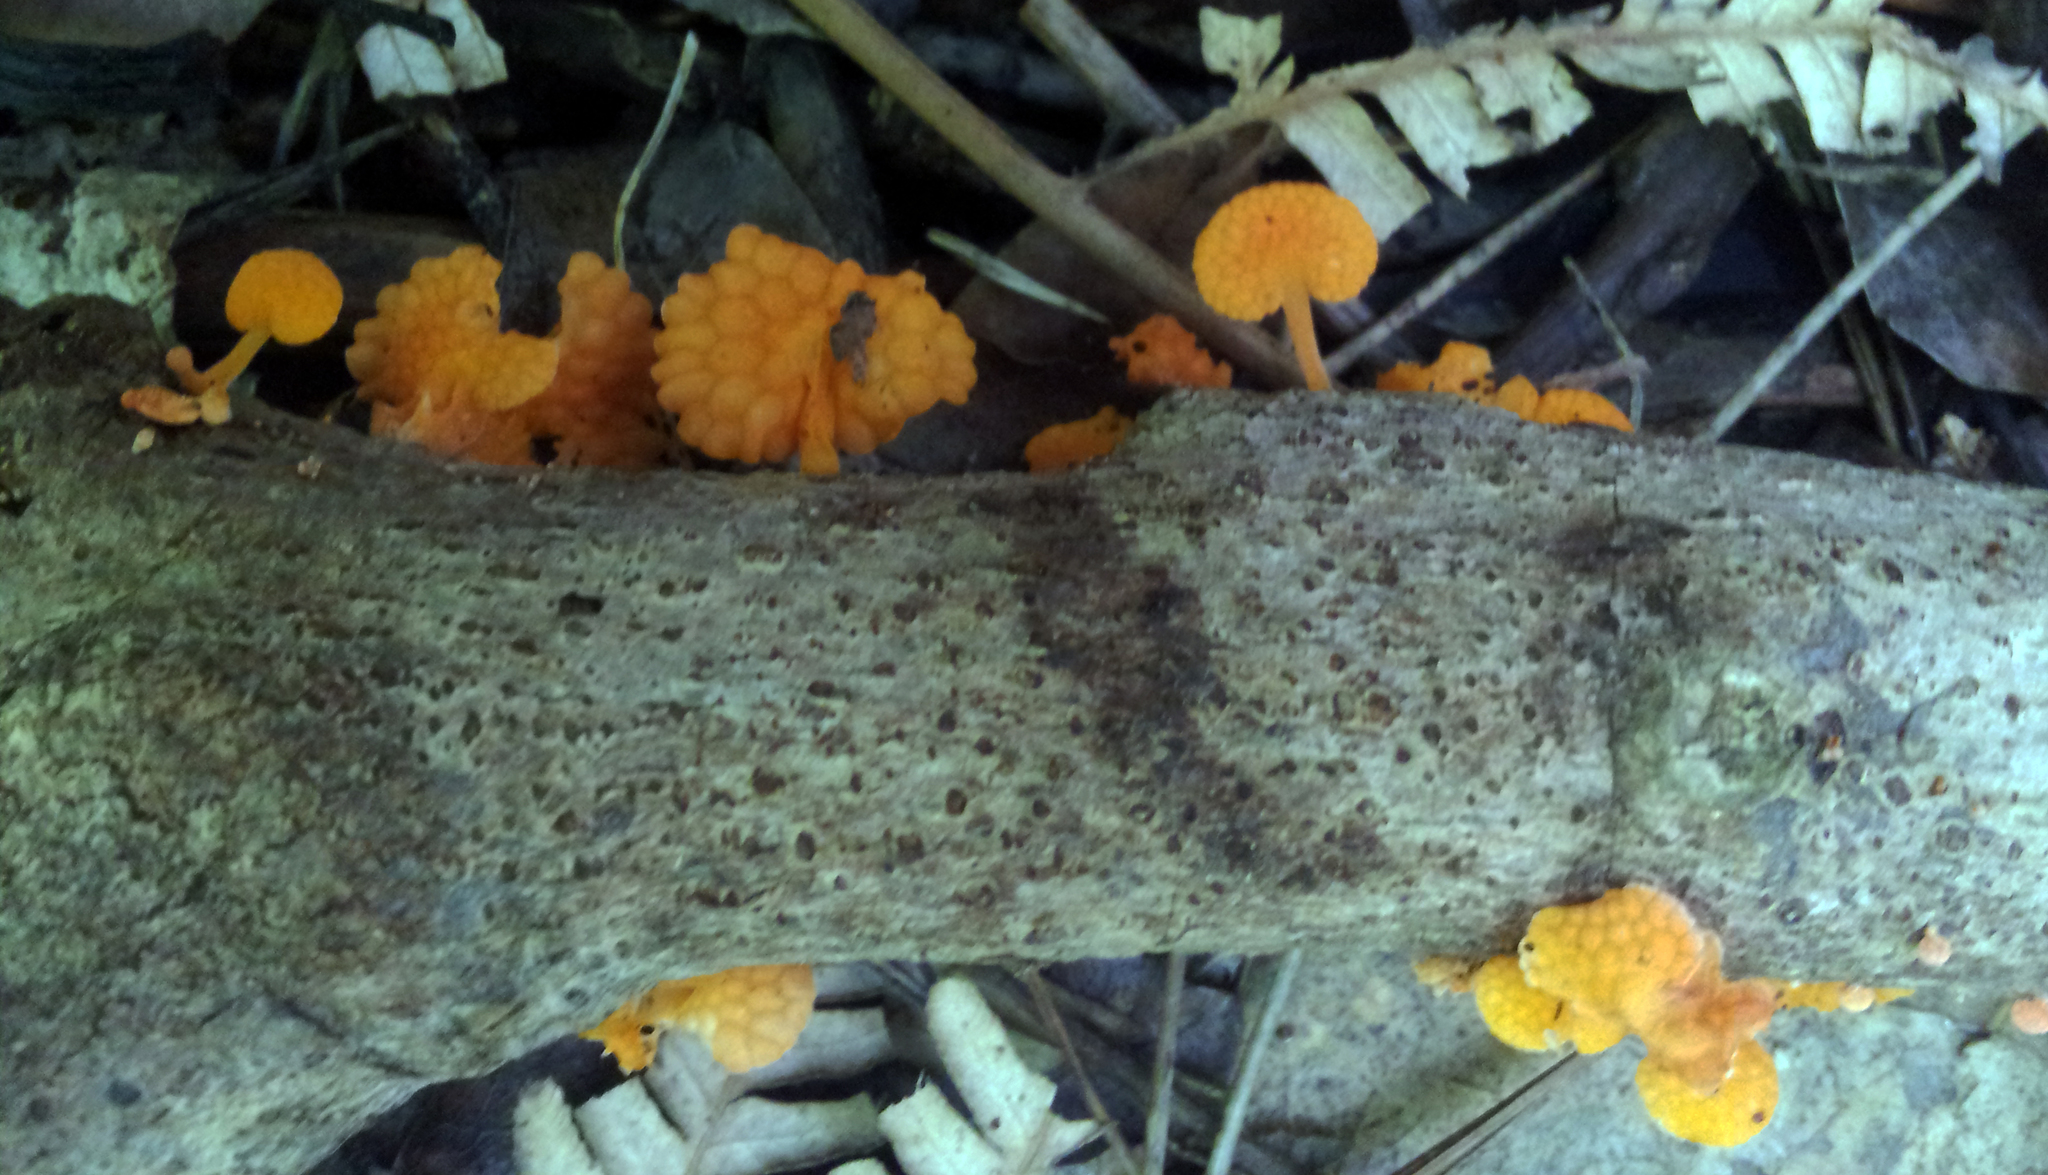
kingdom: Fungi
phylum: Basidiomycota
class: Agaricomycetes
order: Agaricales
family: Mycenaceae
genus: Favolaschia
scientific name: Favolaschia claudopus
